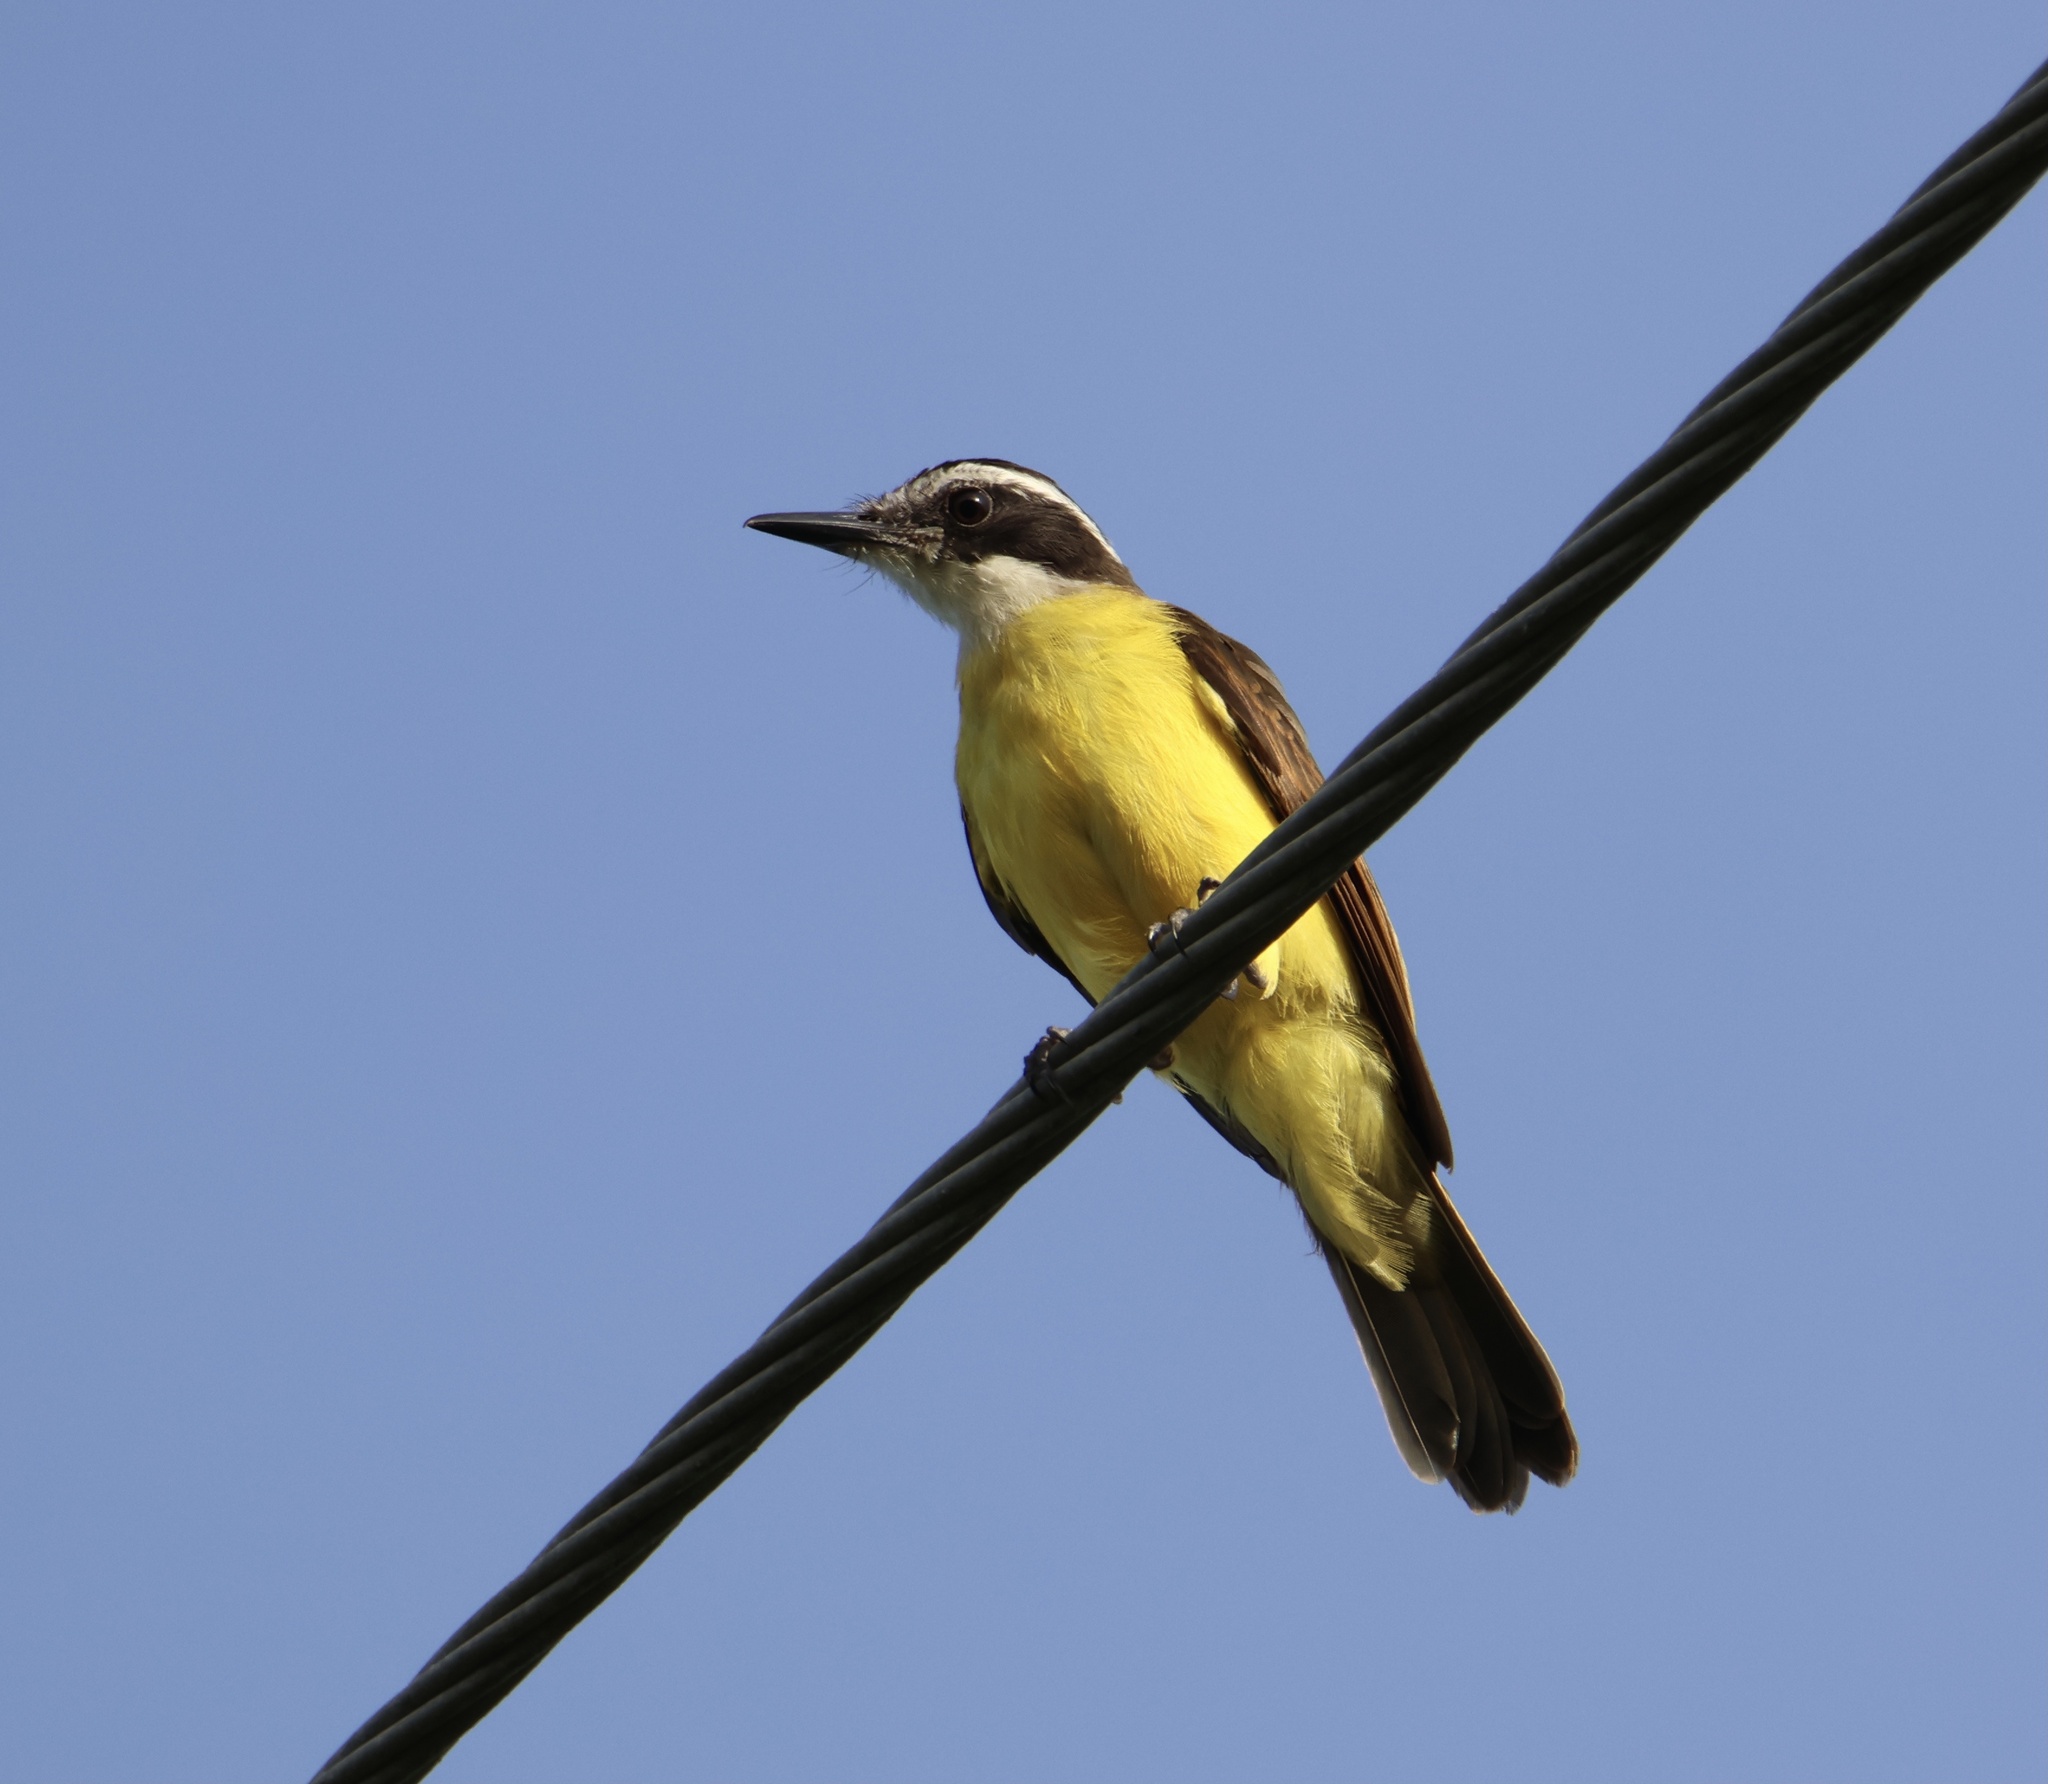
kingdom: Animalia
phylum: Chordata
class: Aves
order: Passeriformes
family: Tyrannidae
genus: Pitangus
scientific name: Pitangus lictor
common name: Lesser kiskadee
